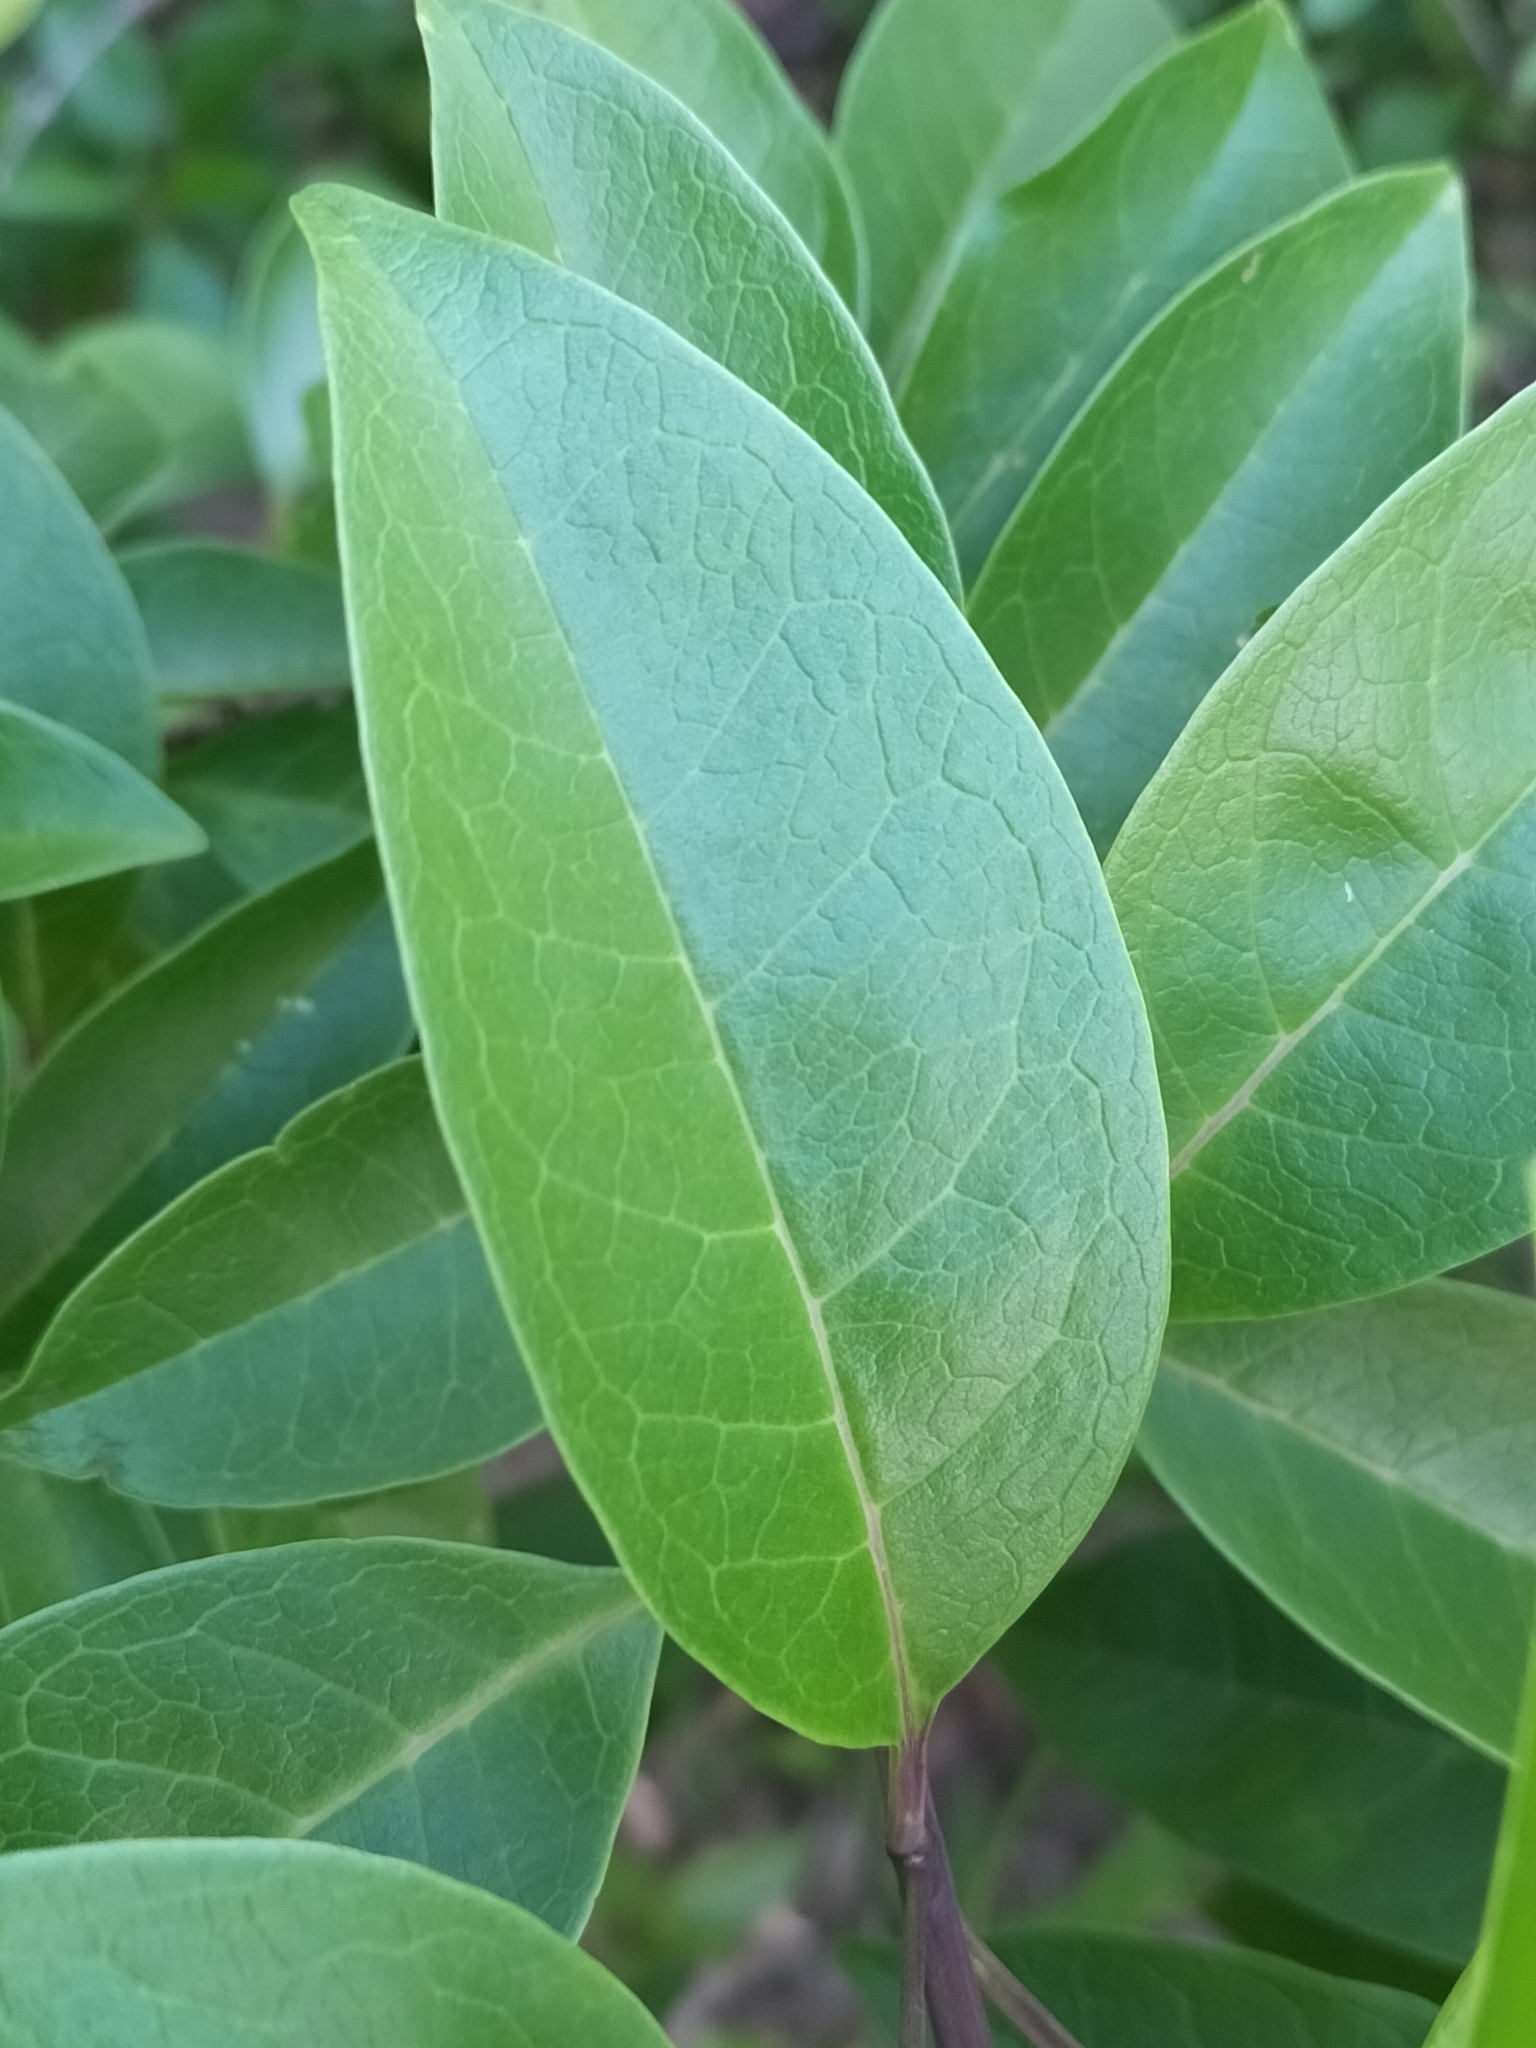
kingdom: Plantae
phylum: Tracheophyta
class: Magnoliopsida
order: Lamiales
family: Lamiaceae
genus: Volkameria
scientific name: Volkameria inermis
